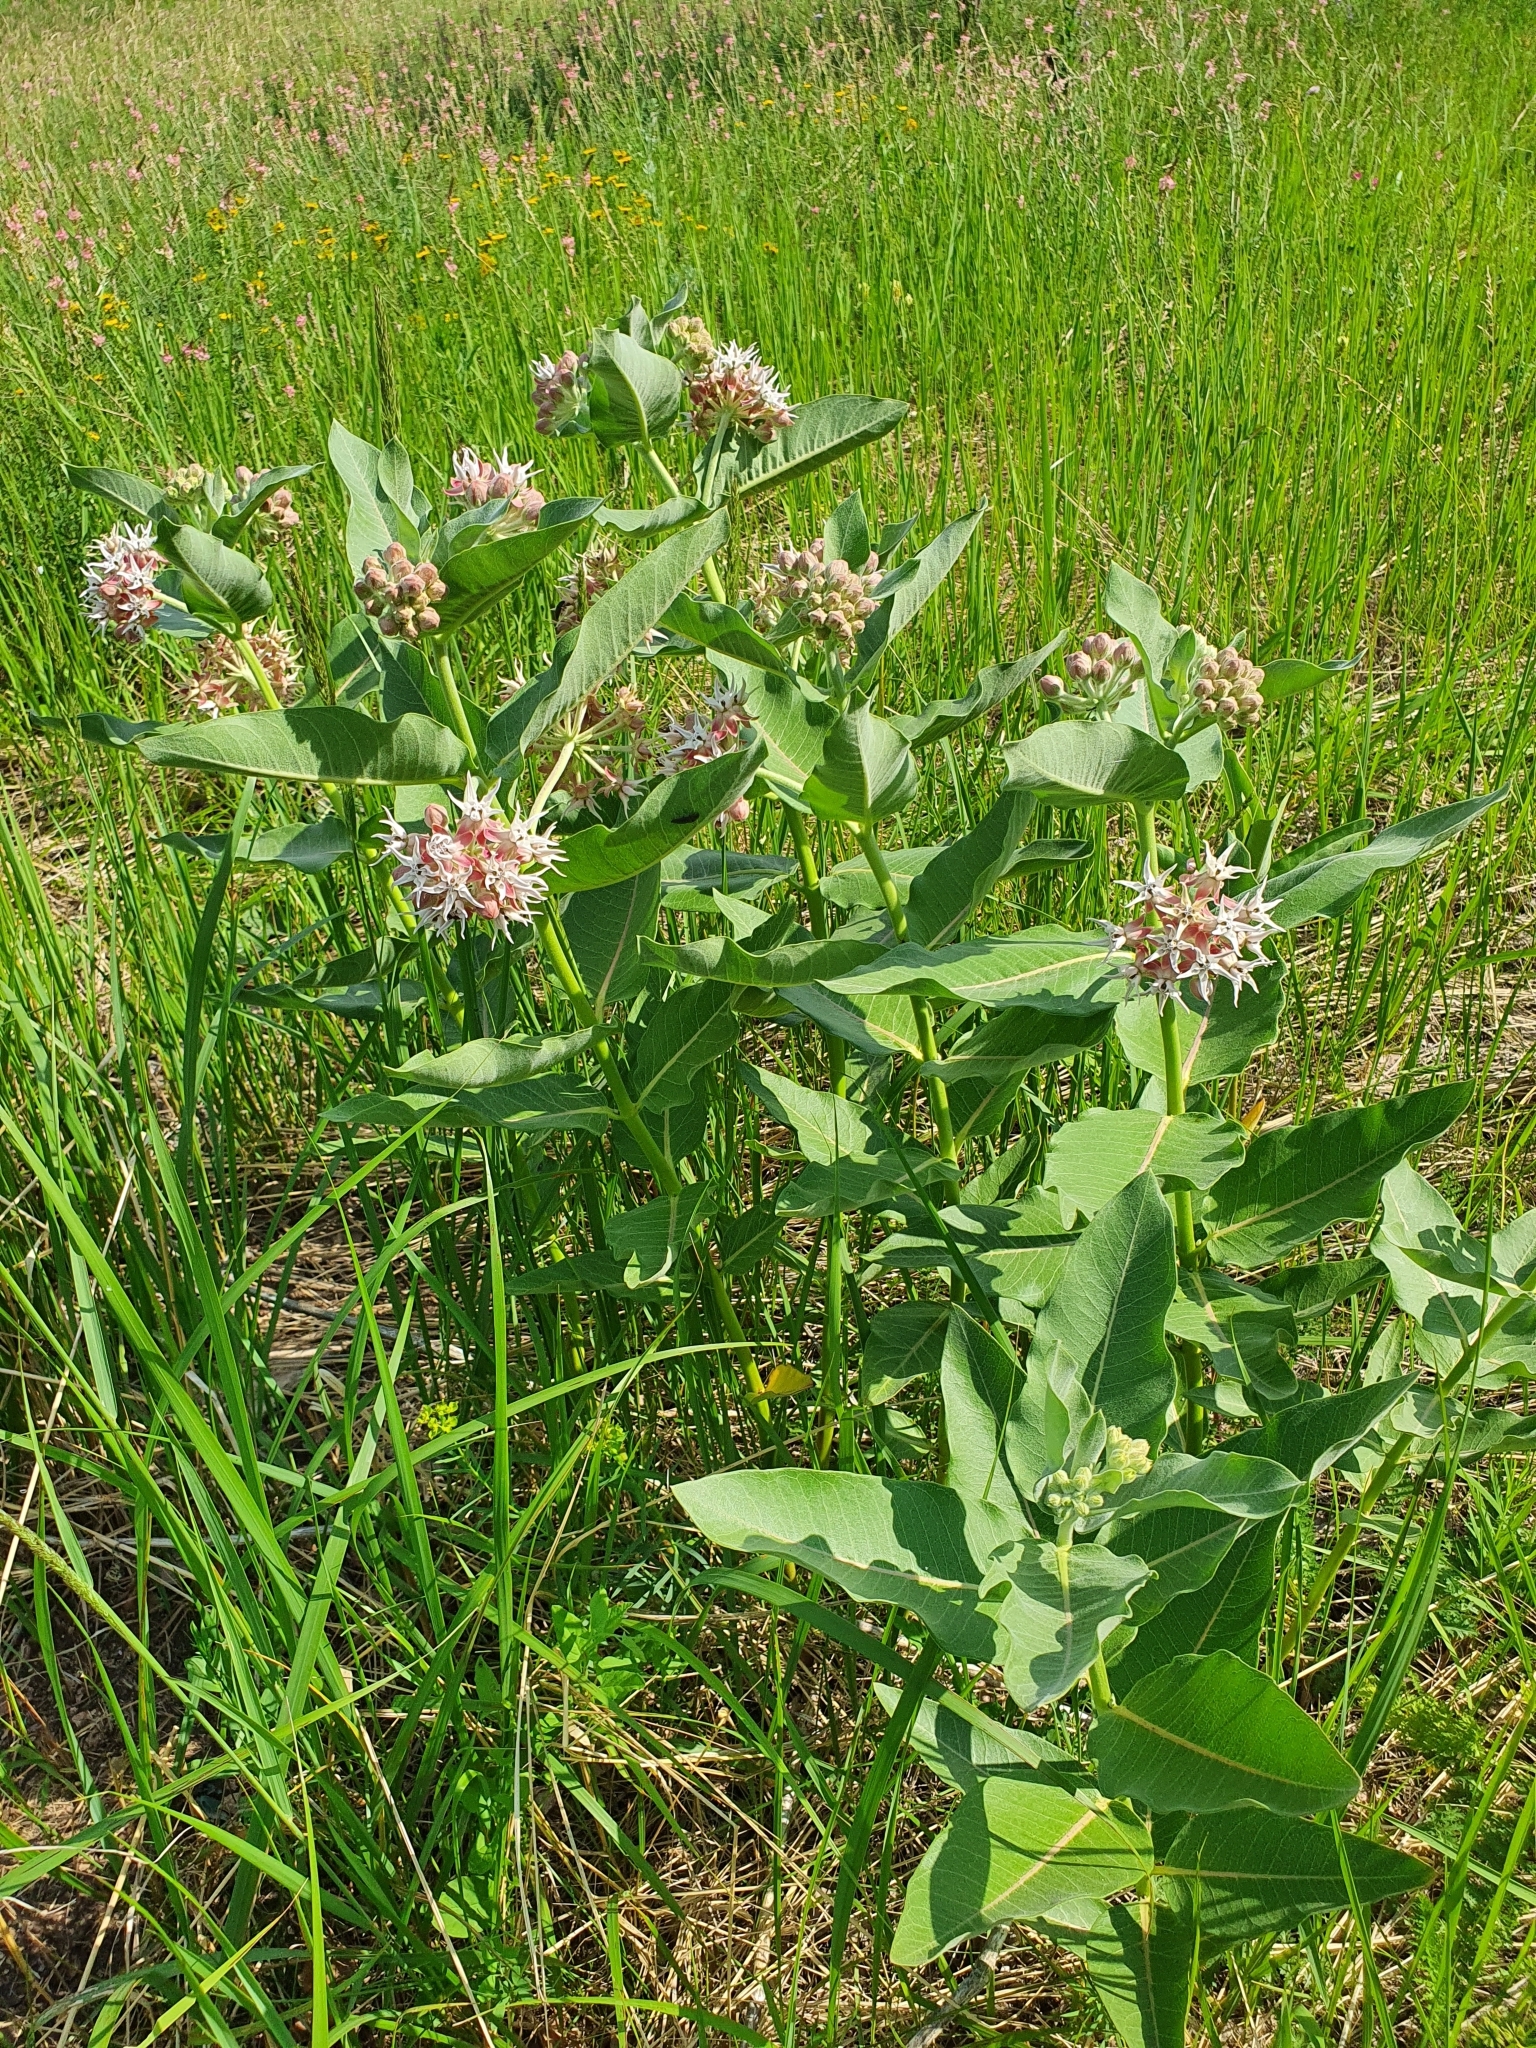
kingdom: Plantae
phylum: Tracheophyta
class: Magnoliopsida
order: Gentianales
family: Apocynaceae
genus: Asclepias
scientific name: Asclepias syriaca
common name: Common milkweed
